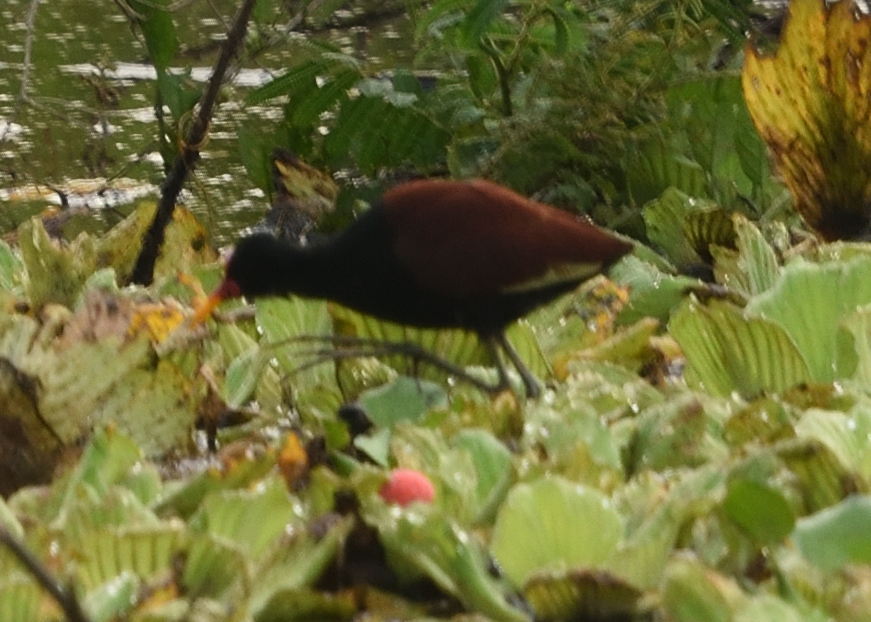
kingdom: Animalia
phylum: Chordata
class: Aves
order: Charadriiformes
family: Jacanidae
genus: Jacana
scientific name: Jacana jacana
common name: Wattled jacana
